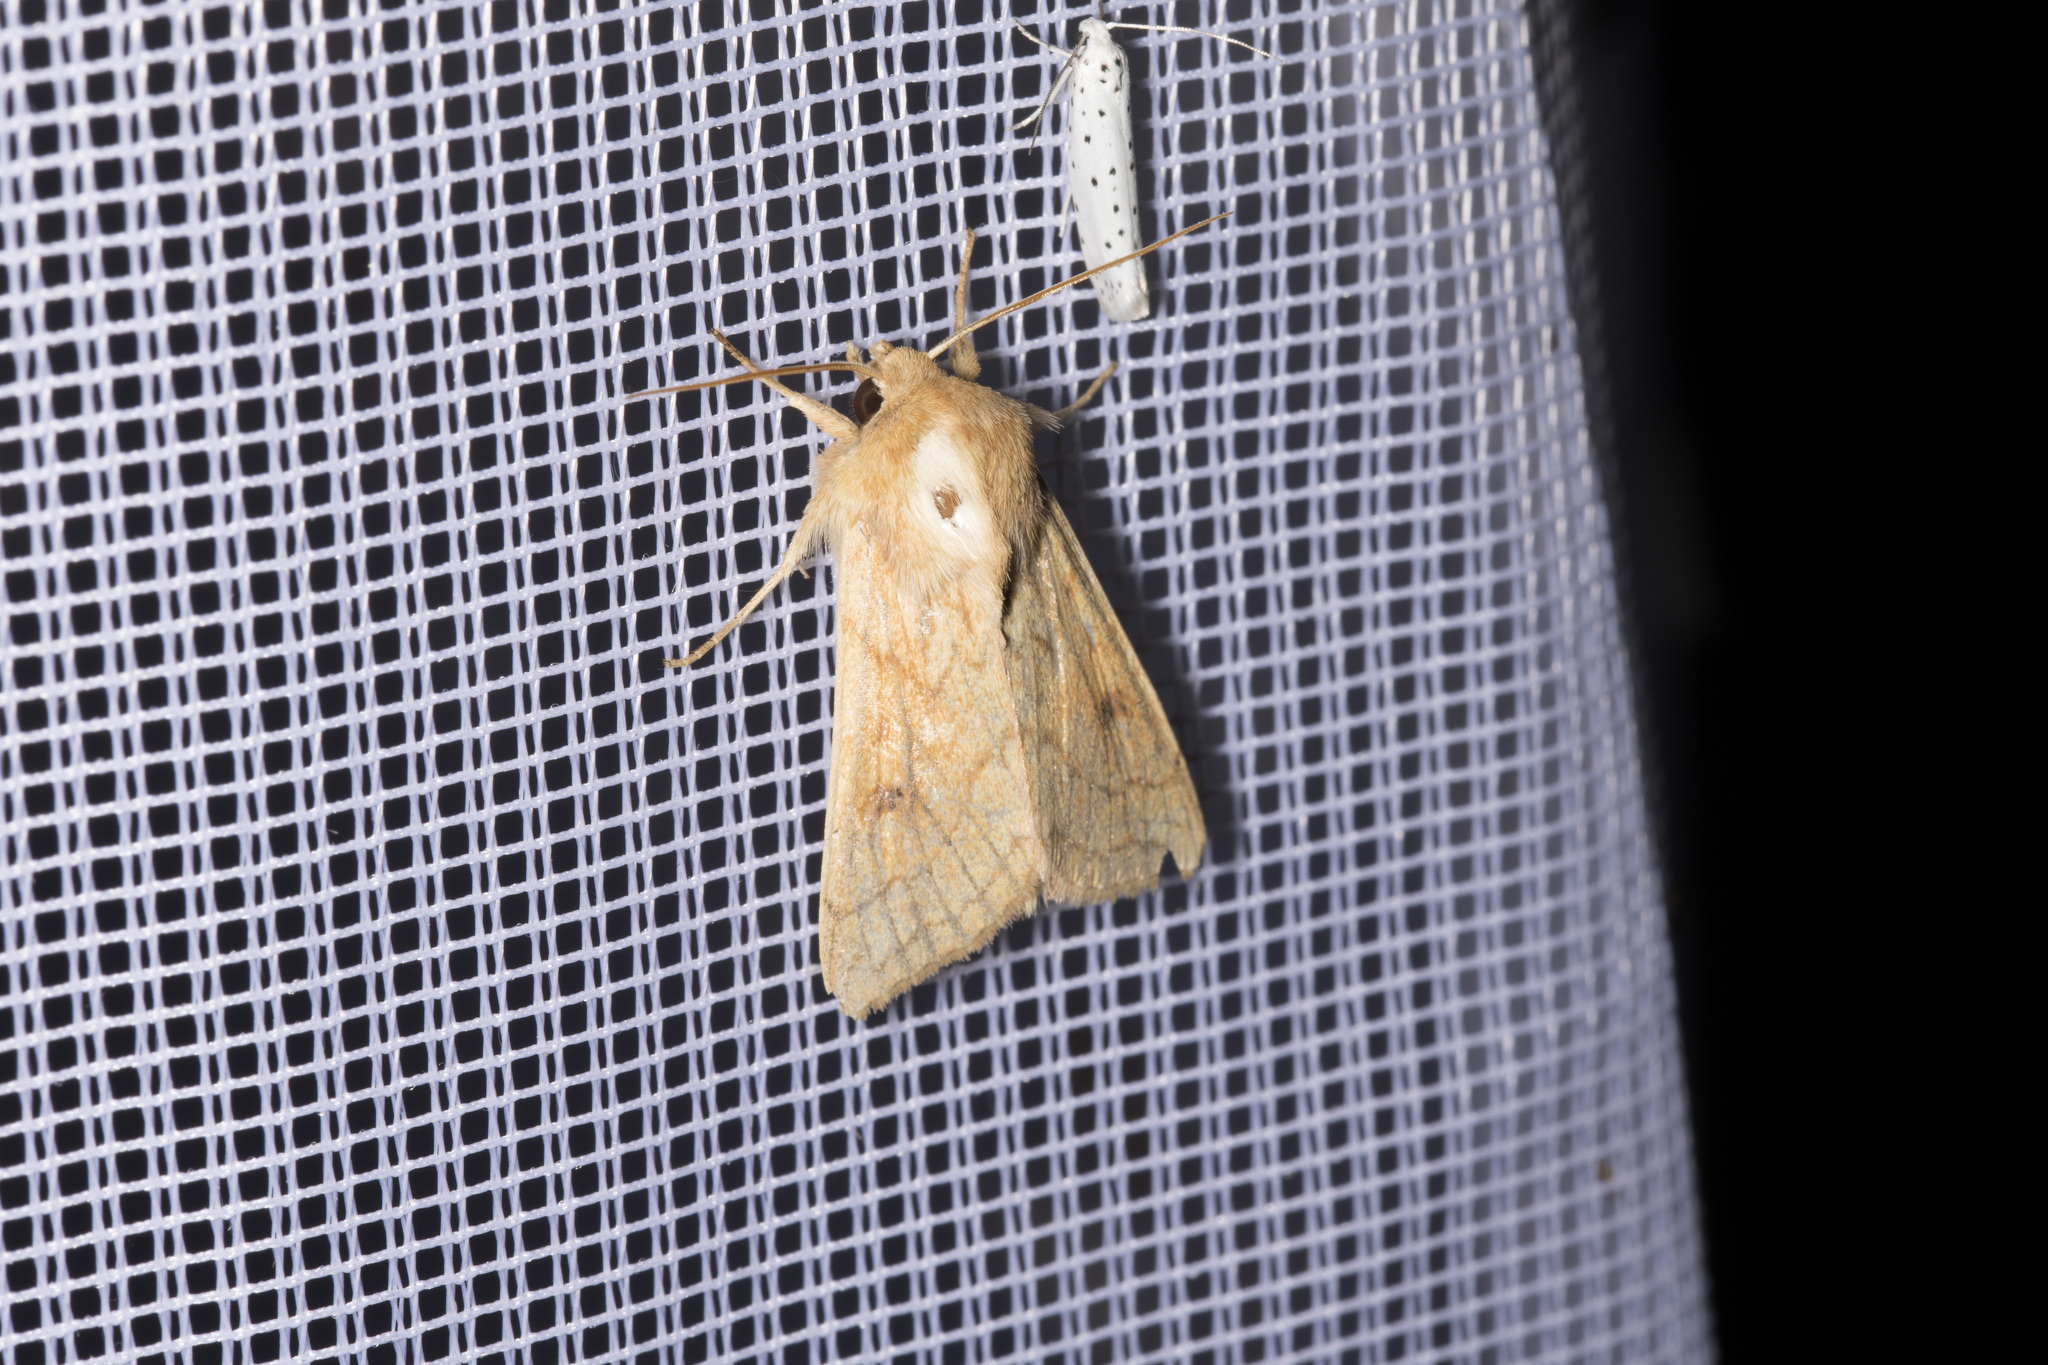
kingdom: Animalia
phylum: Arthropoda
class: Insecta
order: Lepidoptera
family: Noctuidae
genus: Mythimna
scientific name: Mythimna vitellina
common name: Delicate
